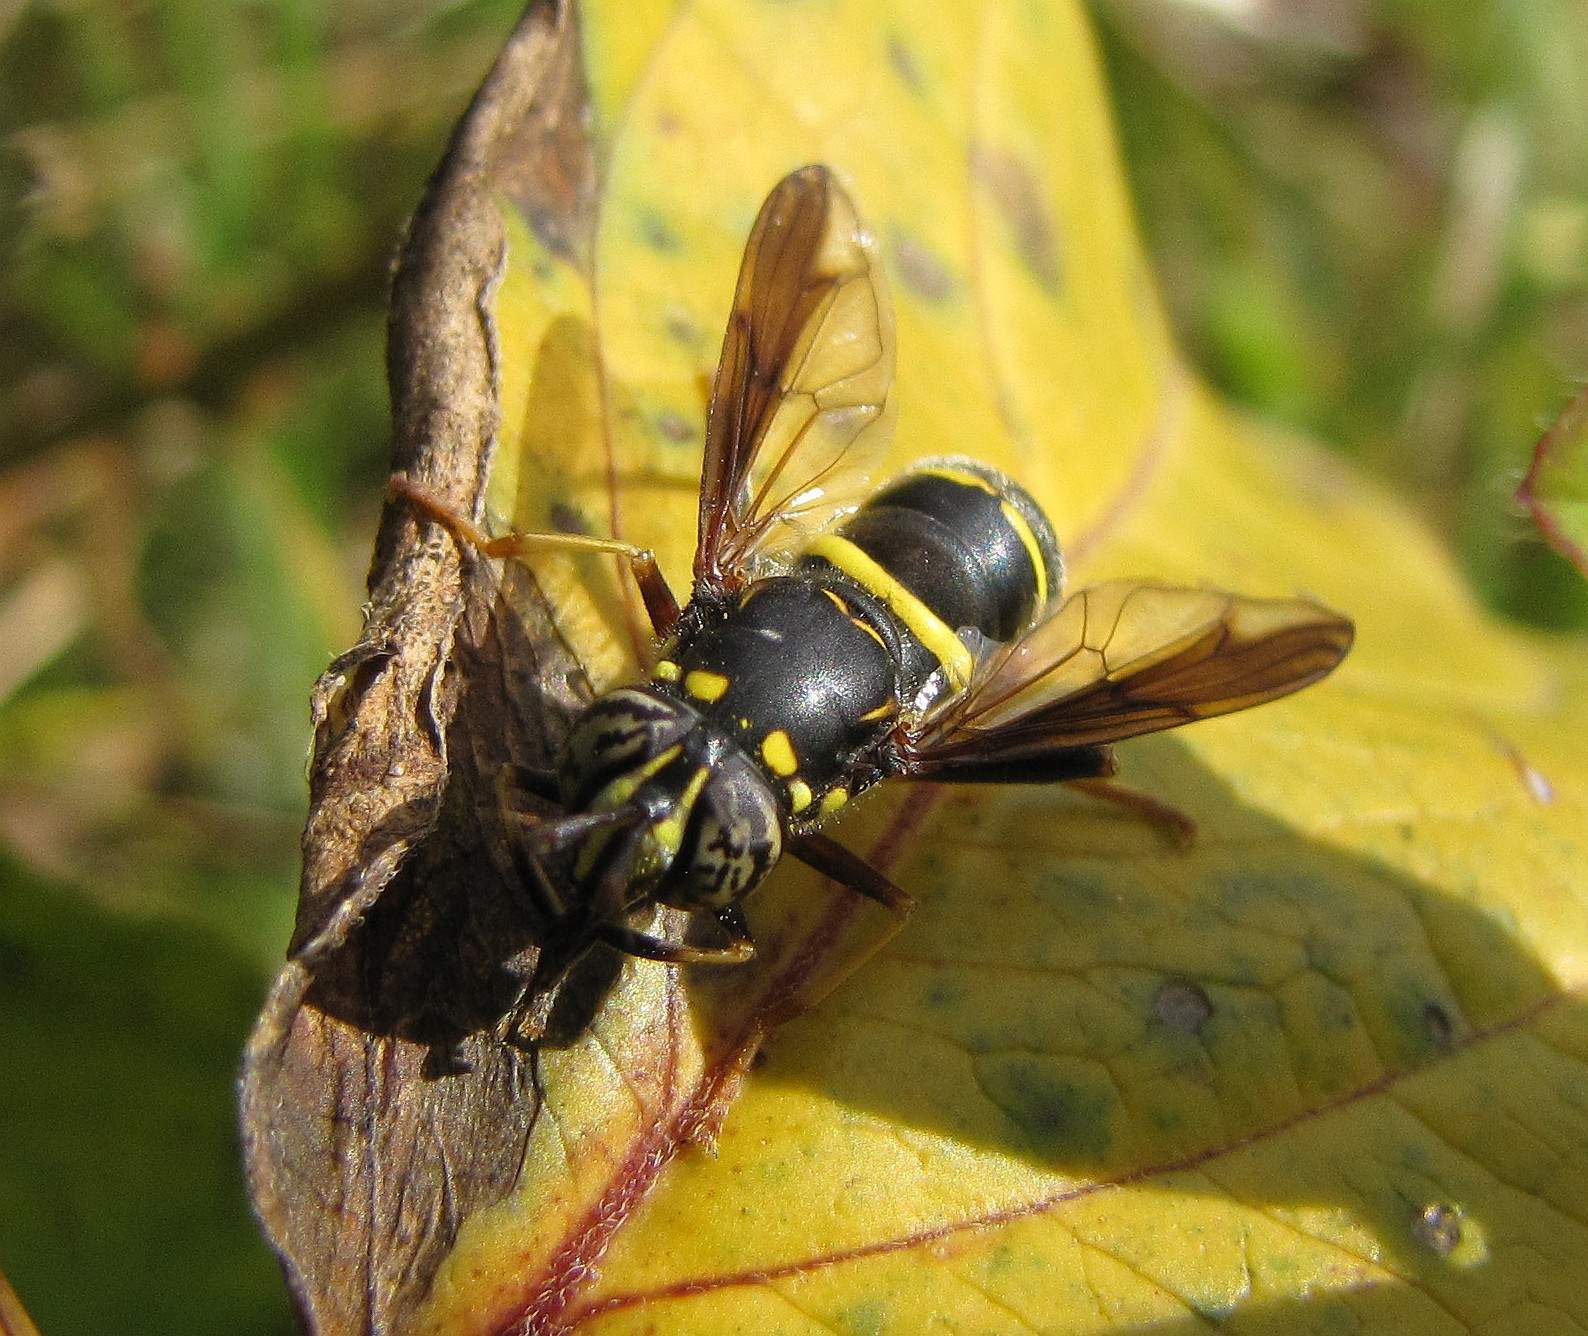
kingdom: Animalia
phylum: Arthropoda
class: Insecta
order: Diptera
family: Syrphidae
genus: Spilomyia
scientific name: Spilomyia sayi
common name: Four-lined hornet fly
